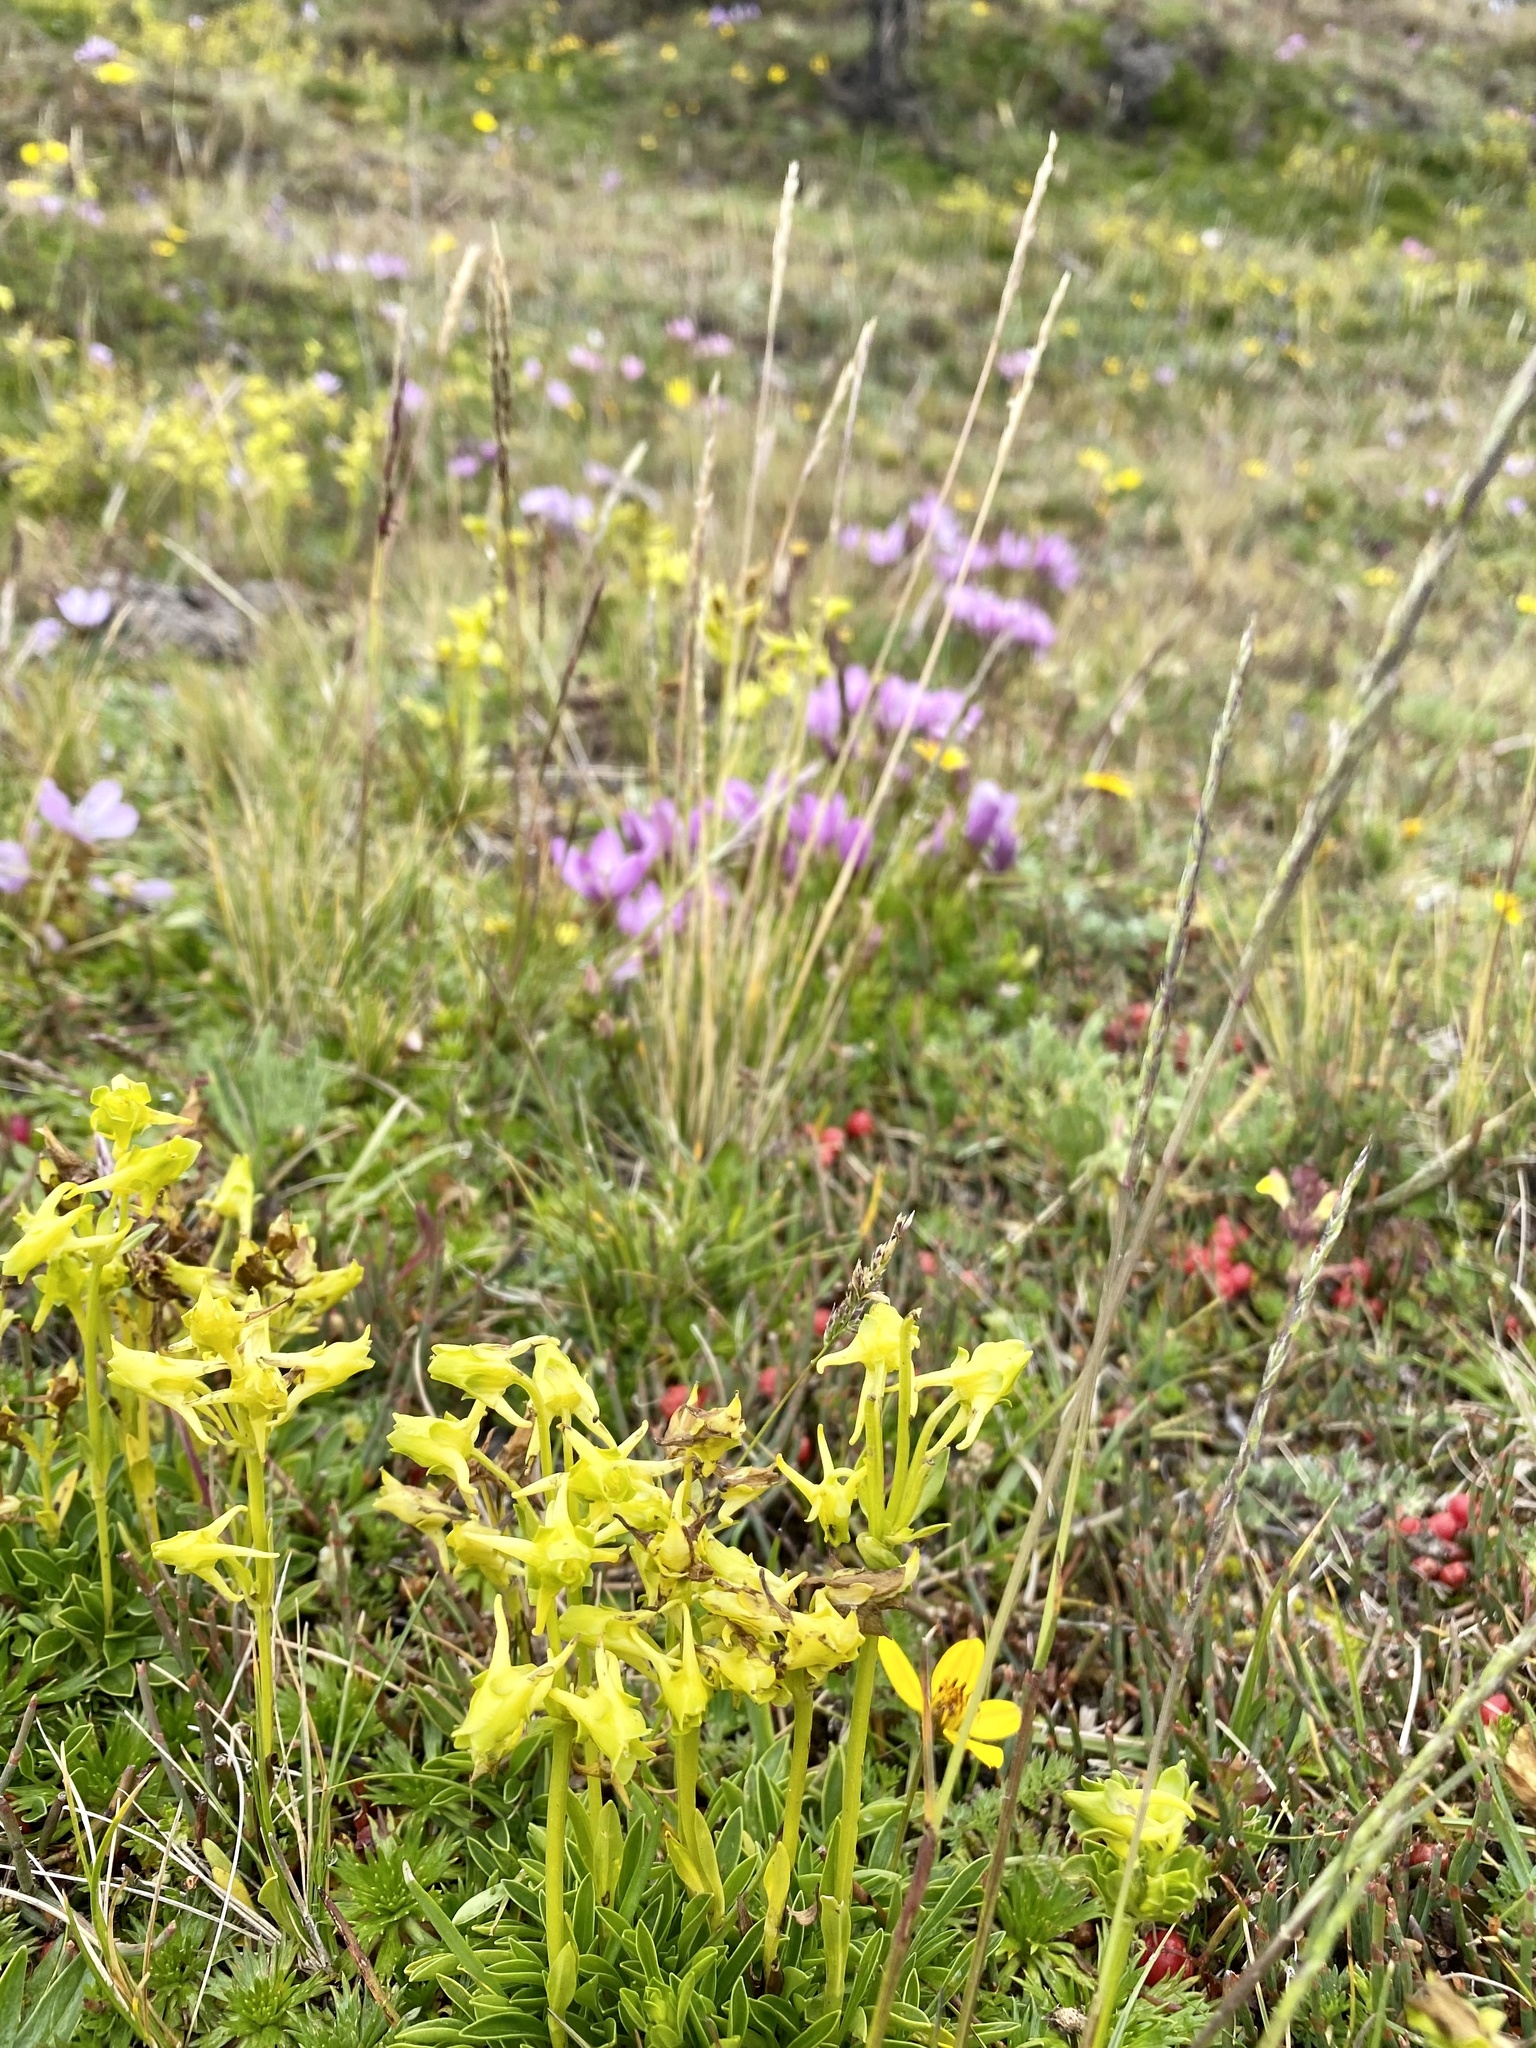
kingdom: Plantae
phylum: Tracheophyta
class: Magnoliopsida
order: Gentianales
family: Gentianaceae
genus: Halenia
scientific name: Halenia weddelliana
